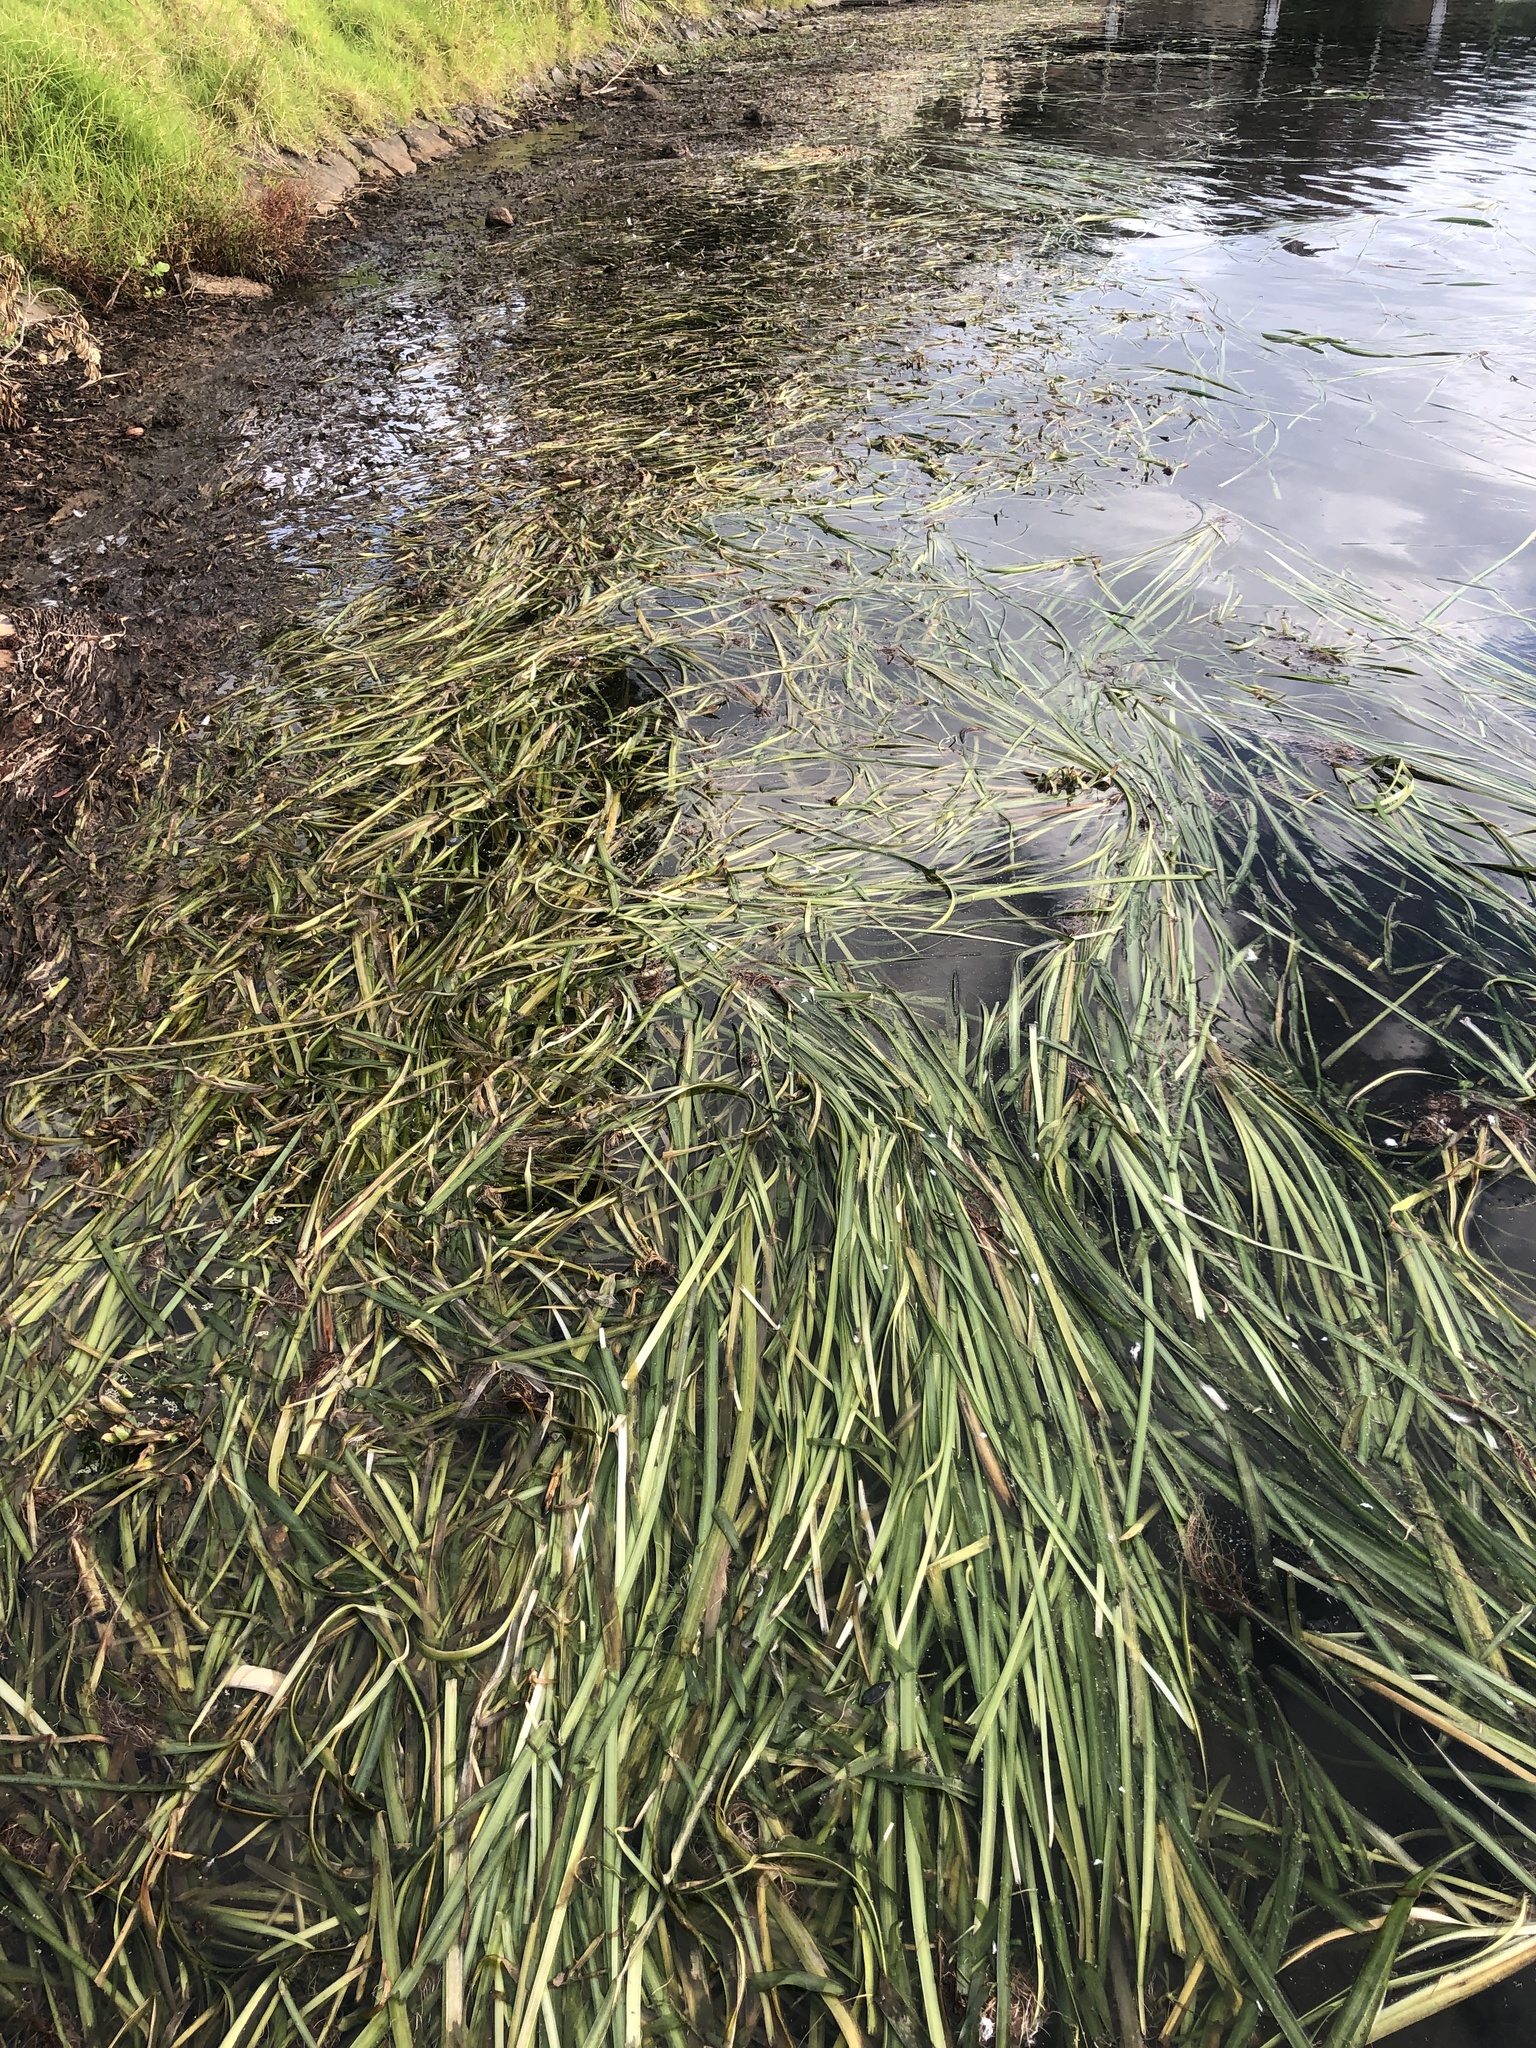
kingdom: Plantae
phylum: Tracheophyta
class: Liliopsida
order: Alismatales
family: Hydrocharitaceae
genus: Vallisneria
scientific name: Vallisneria
